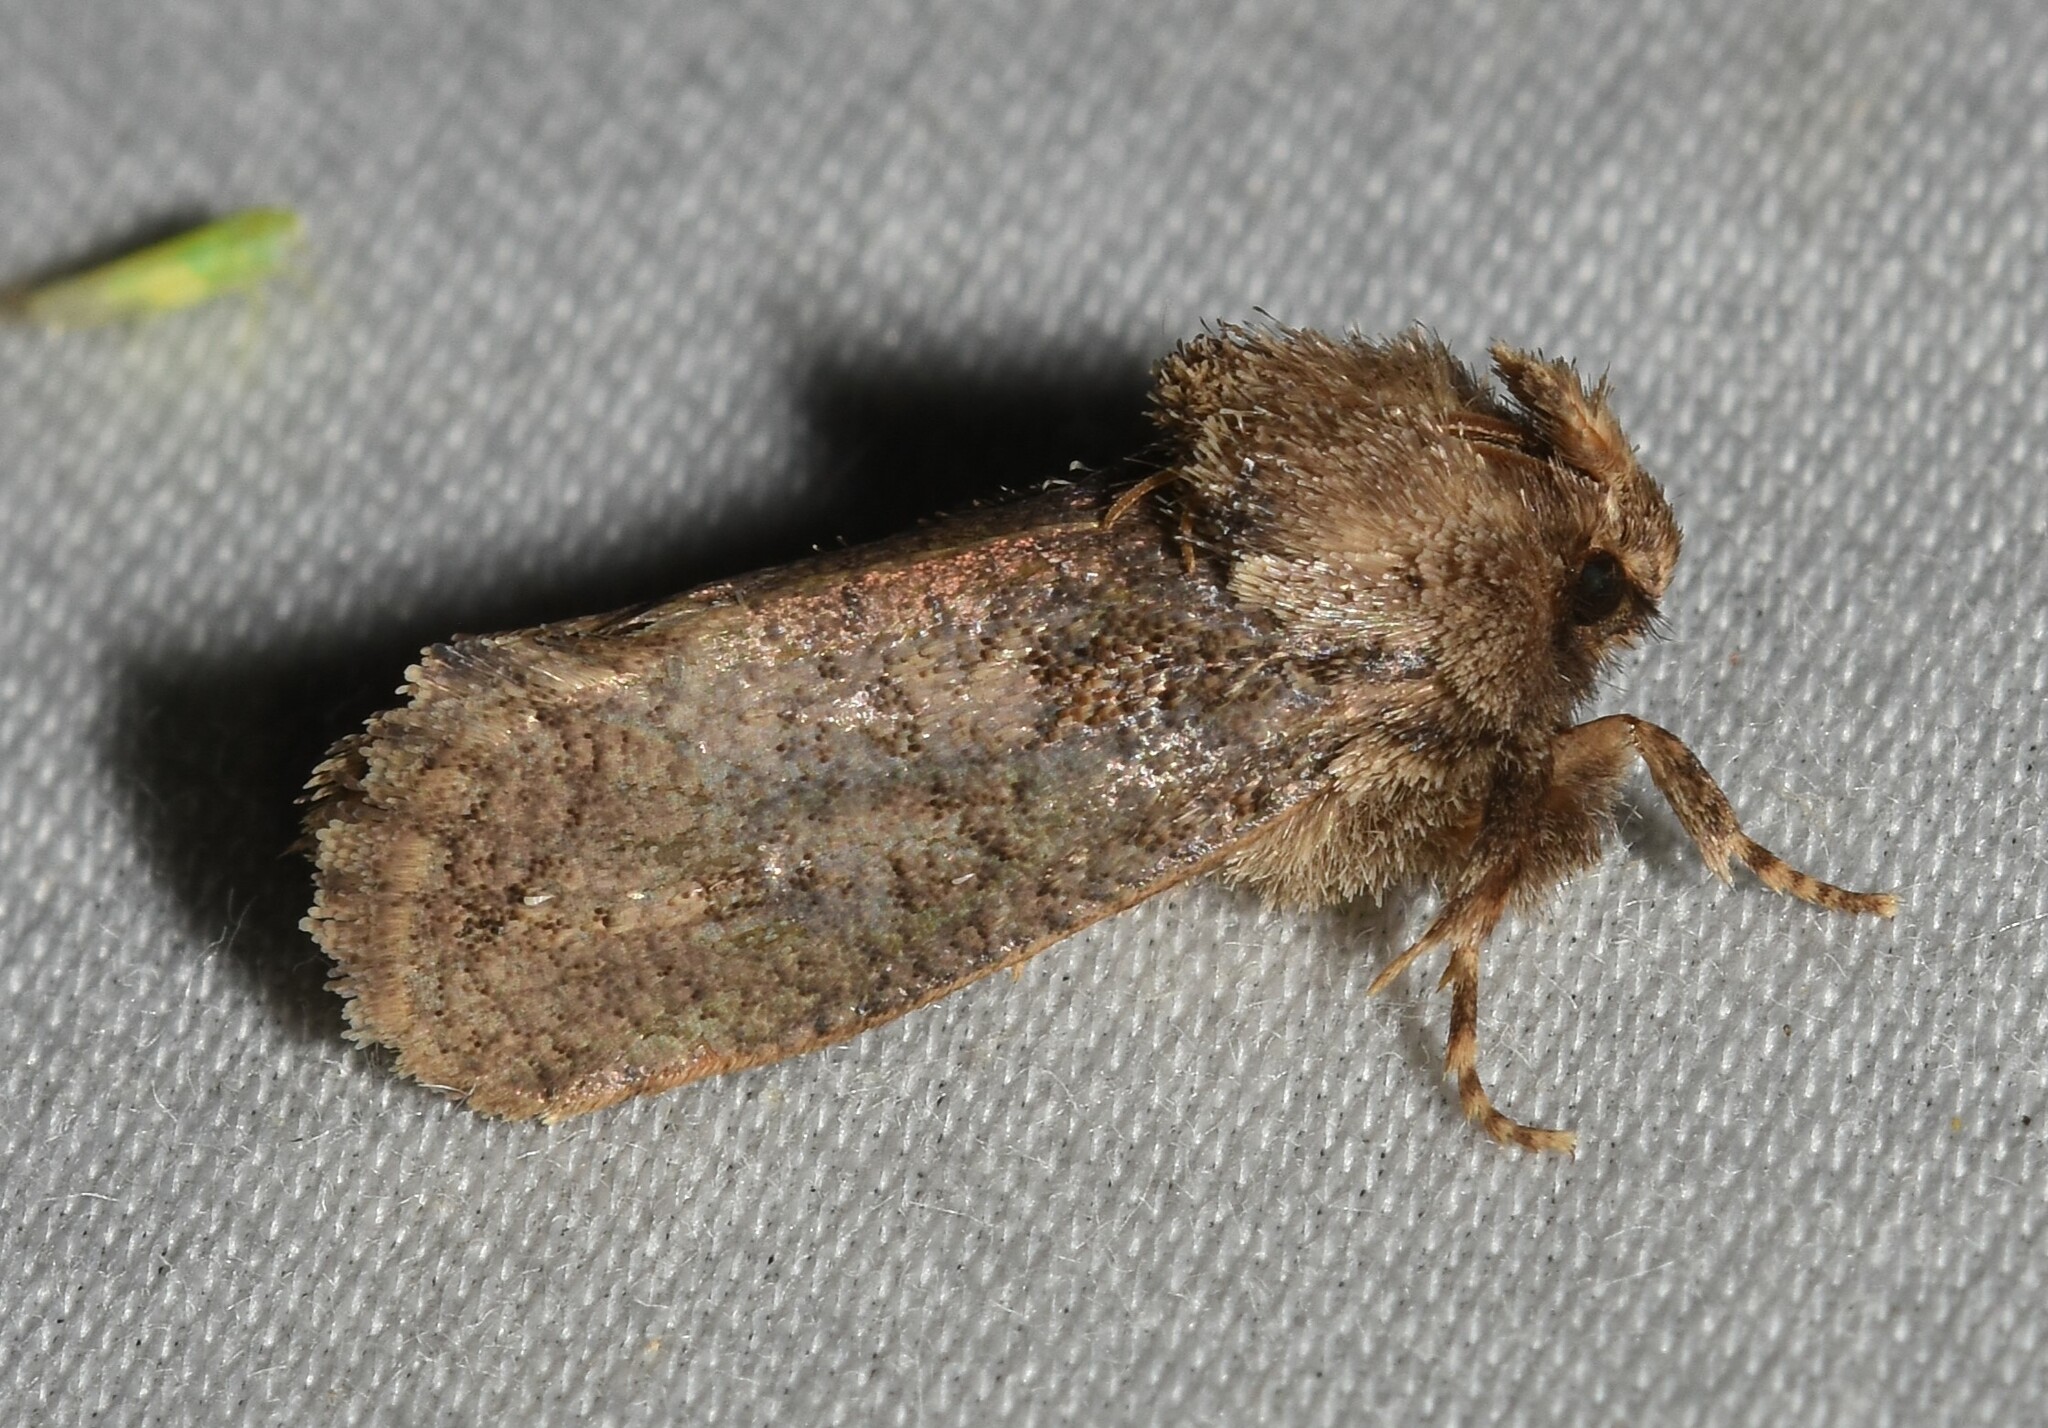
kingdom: Animalia
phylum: Arthropoda
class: Insecta
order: Lepidoptera
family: Tineidae
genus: Acrolophus
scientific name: Acrolophus arcanella
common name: Arcane grass tubeworm moth
